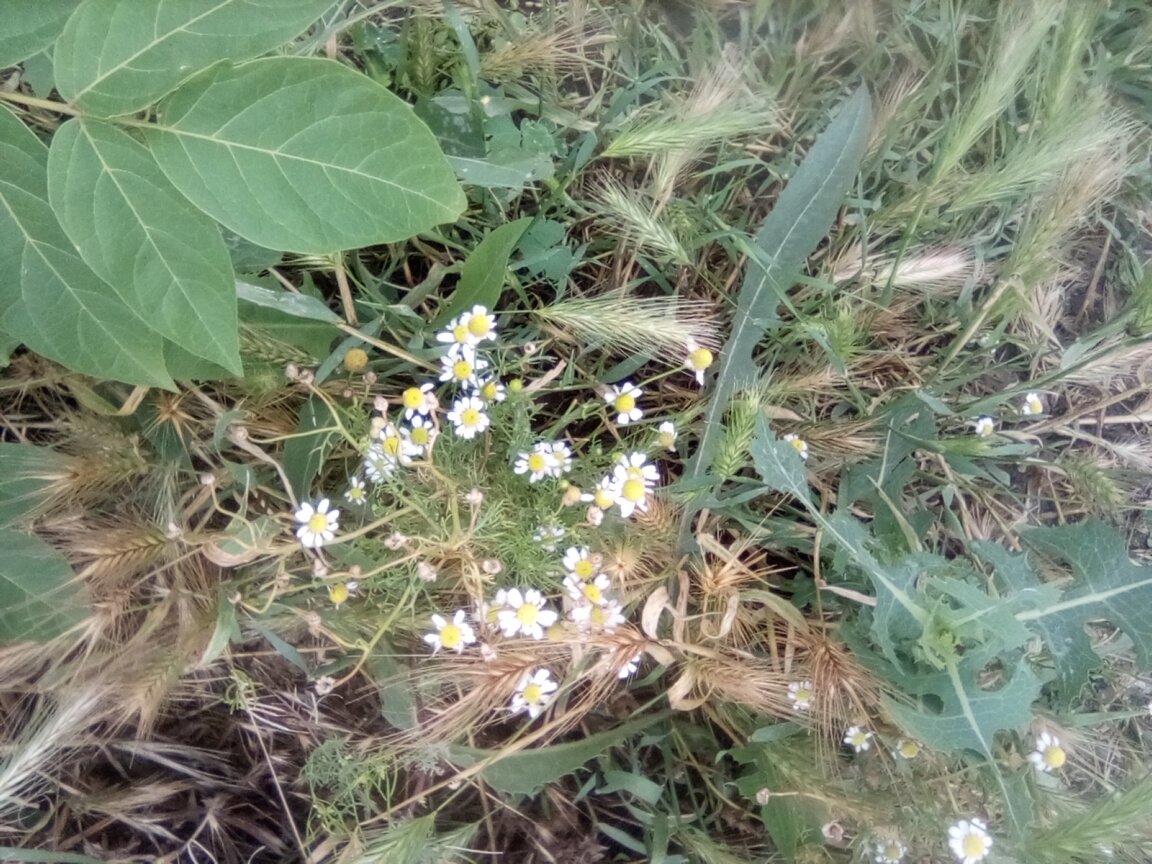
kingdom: Plantae
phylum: Tracheophyta
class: Magnoliopsida
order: Asterales
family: Asteraceae
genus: Matricaria
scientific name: Matricaria chamomilla
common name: Scented mayweed
